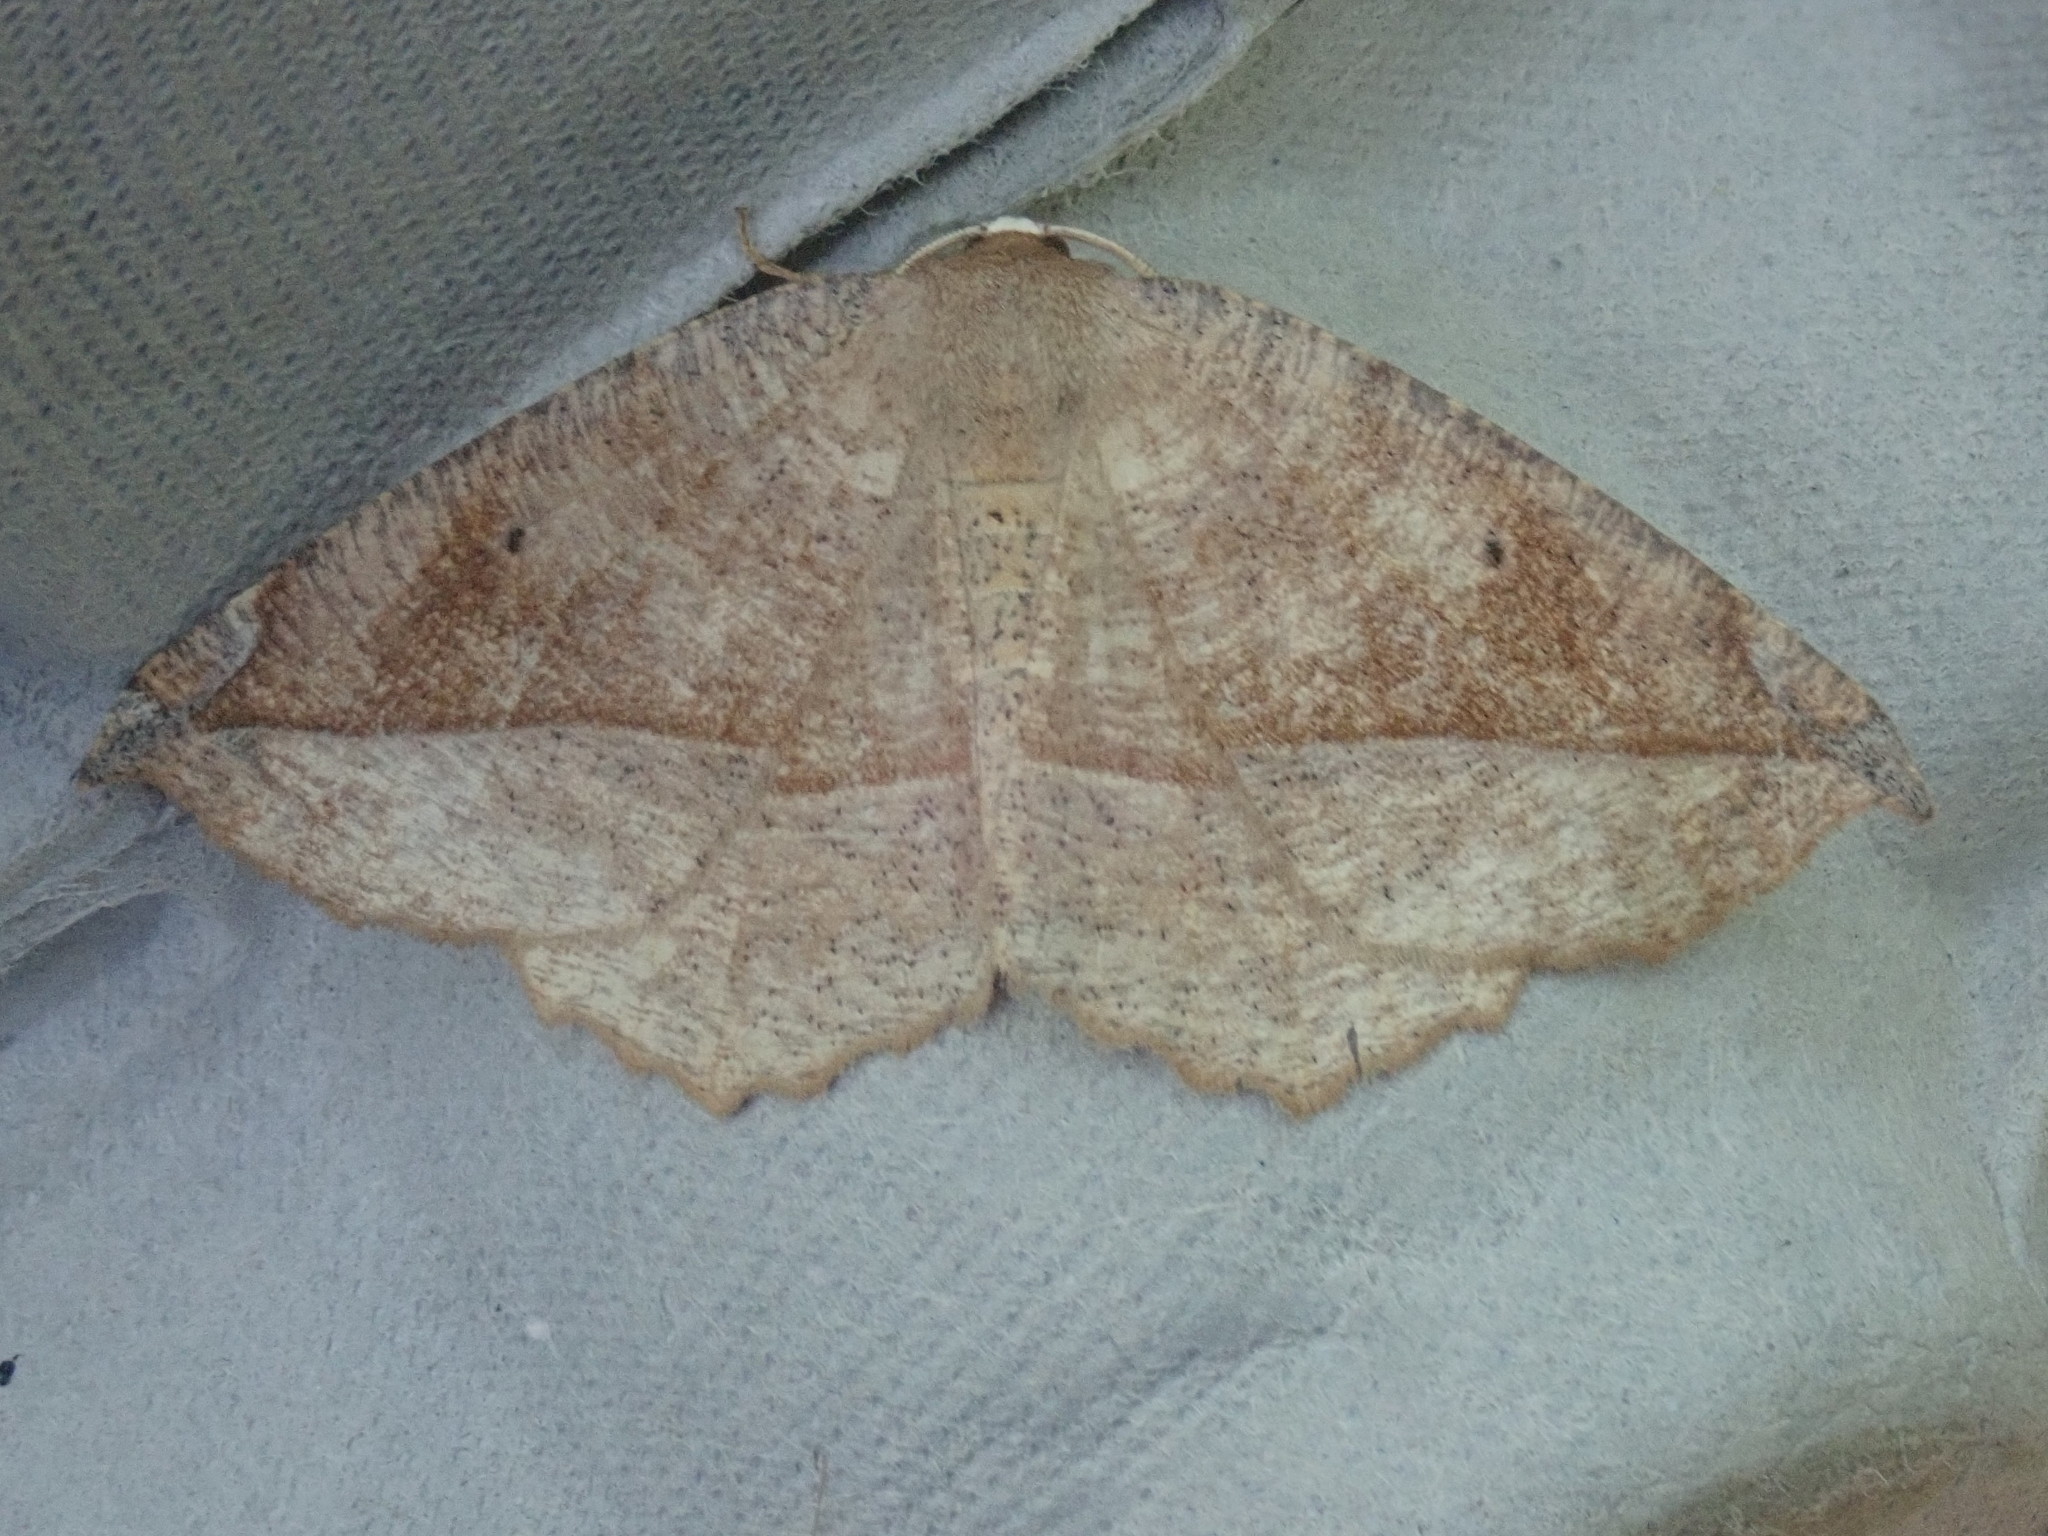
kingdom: Animalia
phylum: Arthropoda
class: Insecta
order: Lepidoptera
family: Geometridae
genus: Eutrapela
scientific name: Eutrapela clemataria
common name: Curved-toothed geometer
